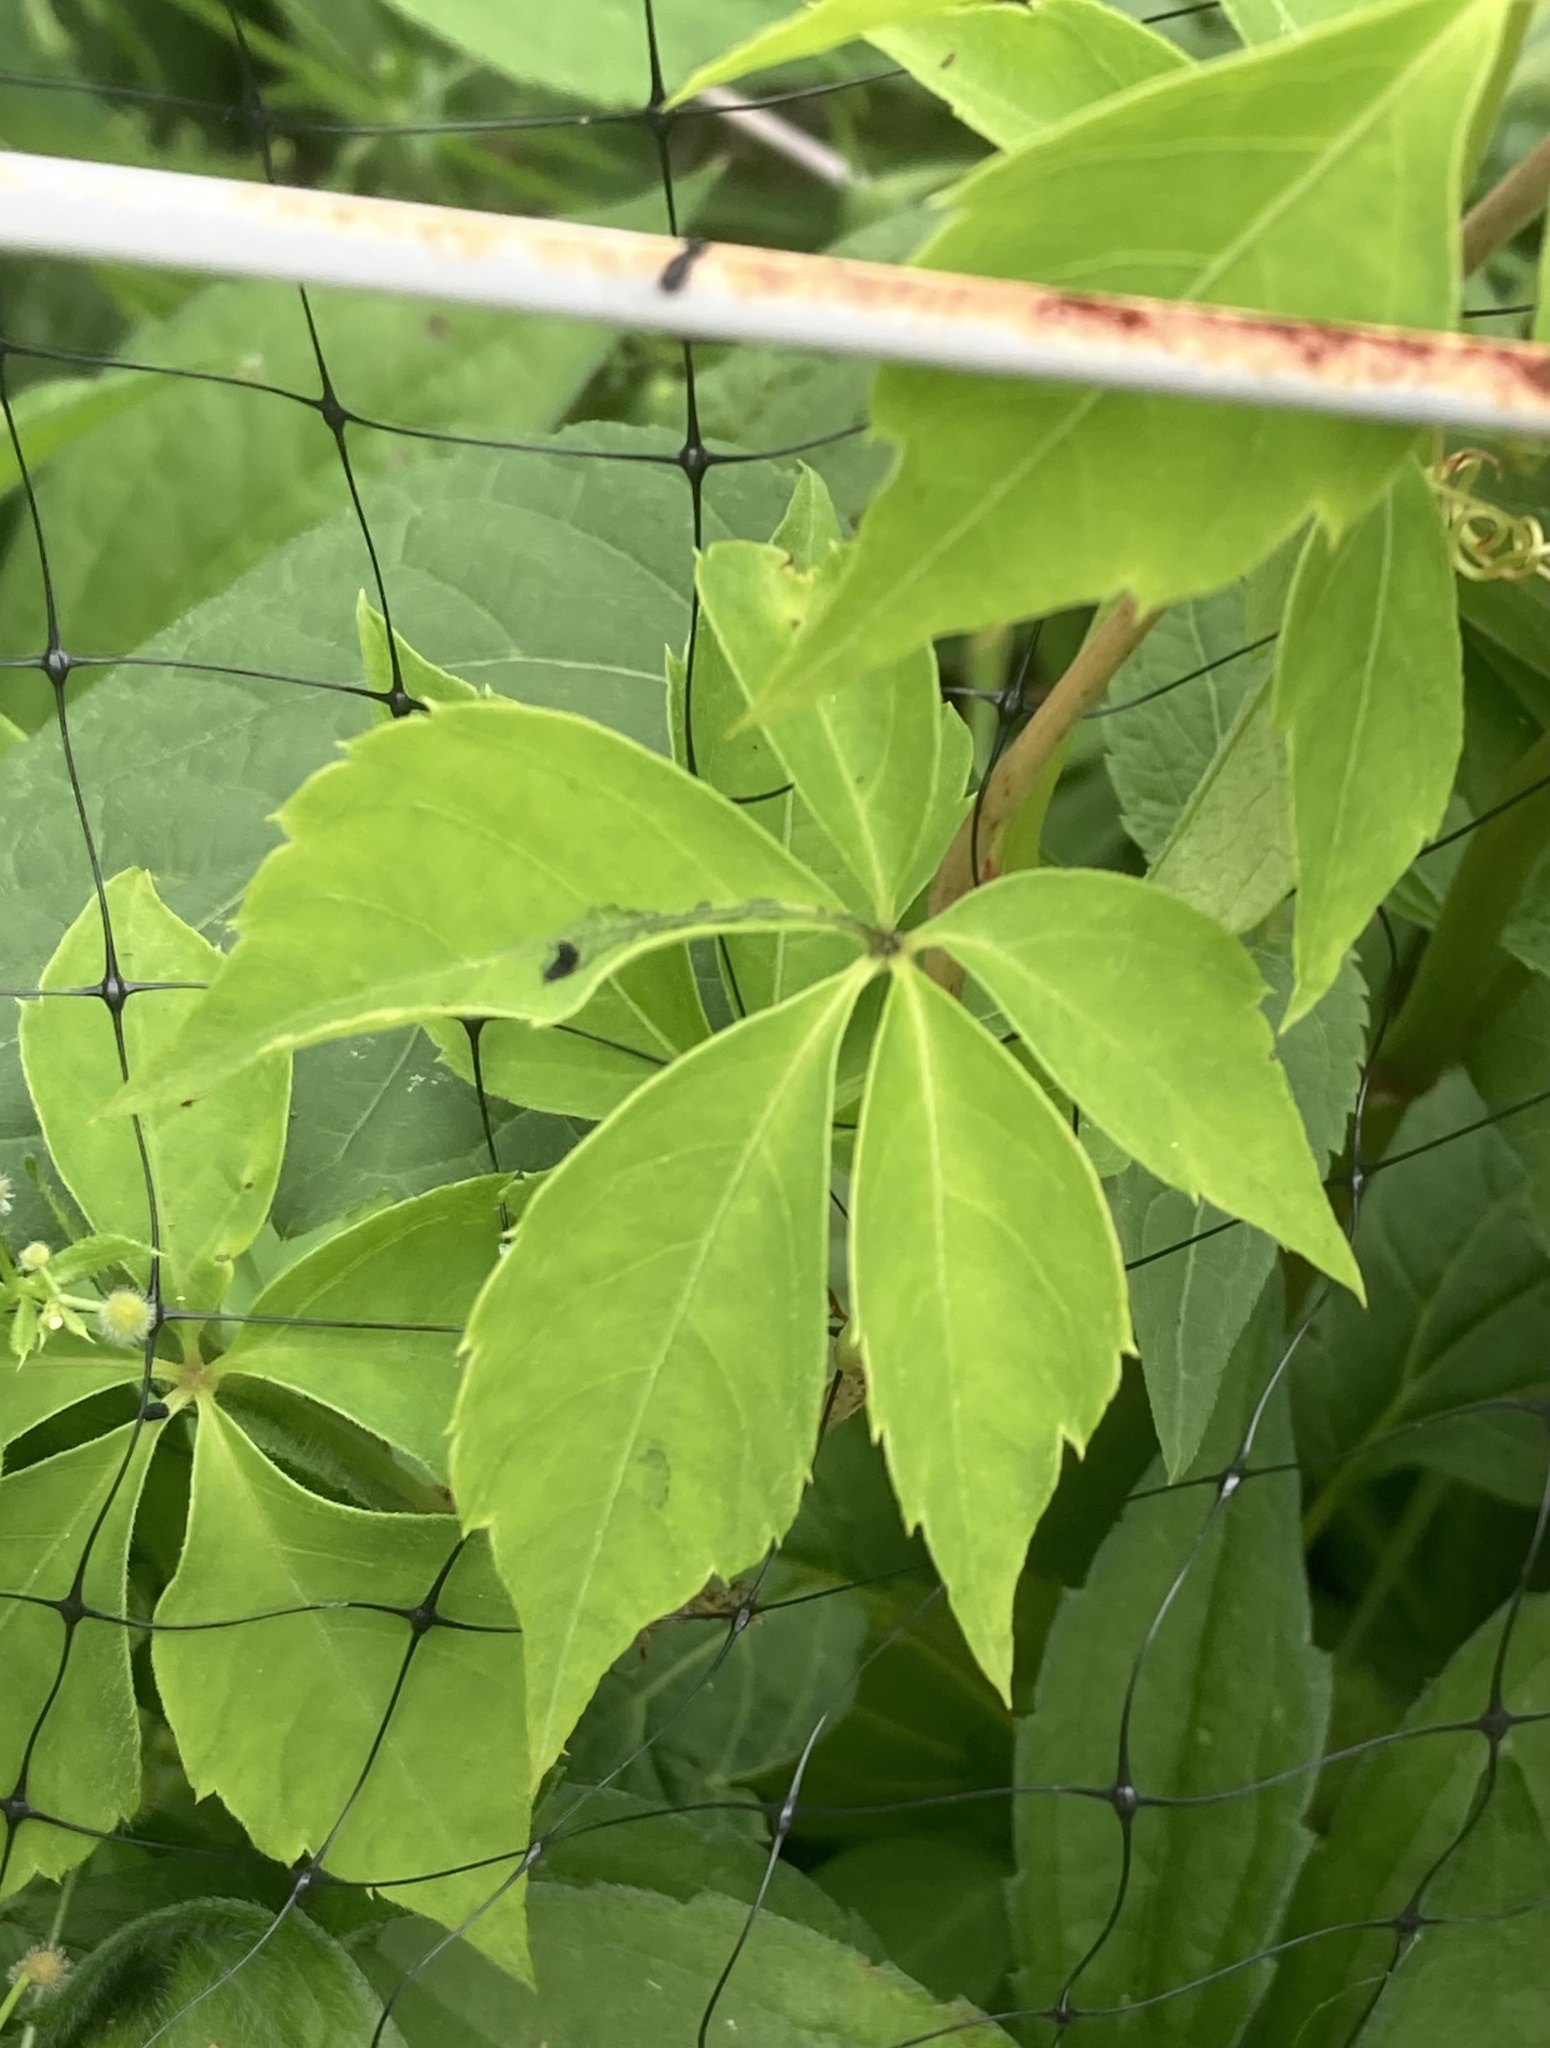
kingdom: Plantae
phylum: Tracheophyta
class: Magnoliopsida
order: Vitales
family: Vitaceae
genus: Parthenocissus
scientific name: Parthenocissus quinquefolia
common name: Virginia-creeper
